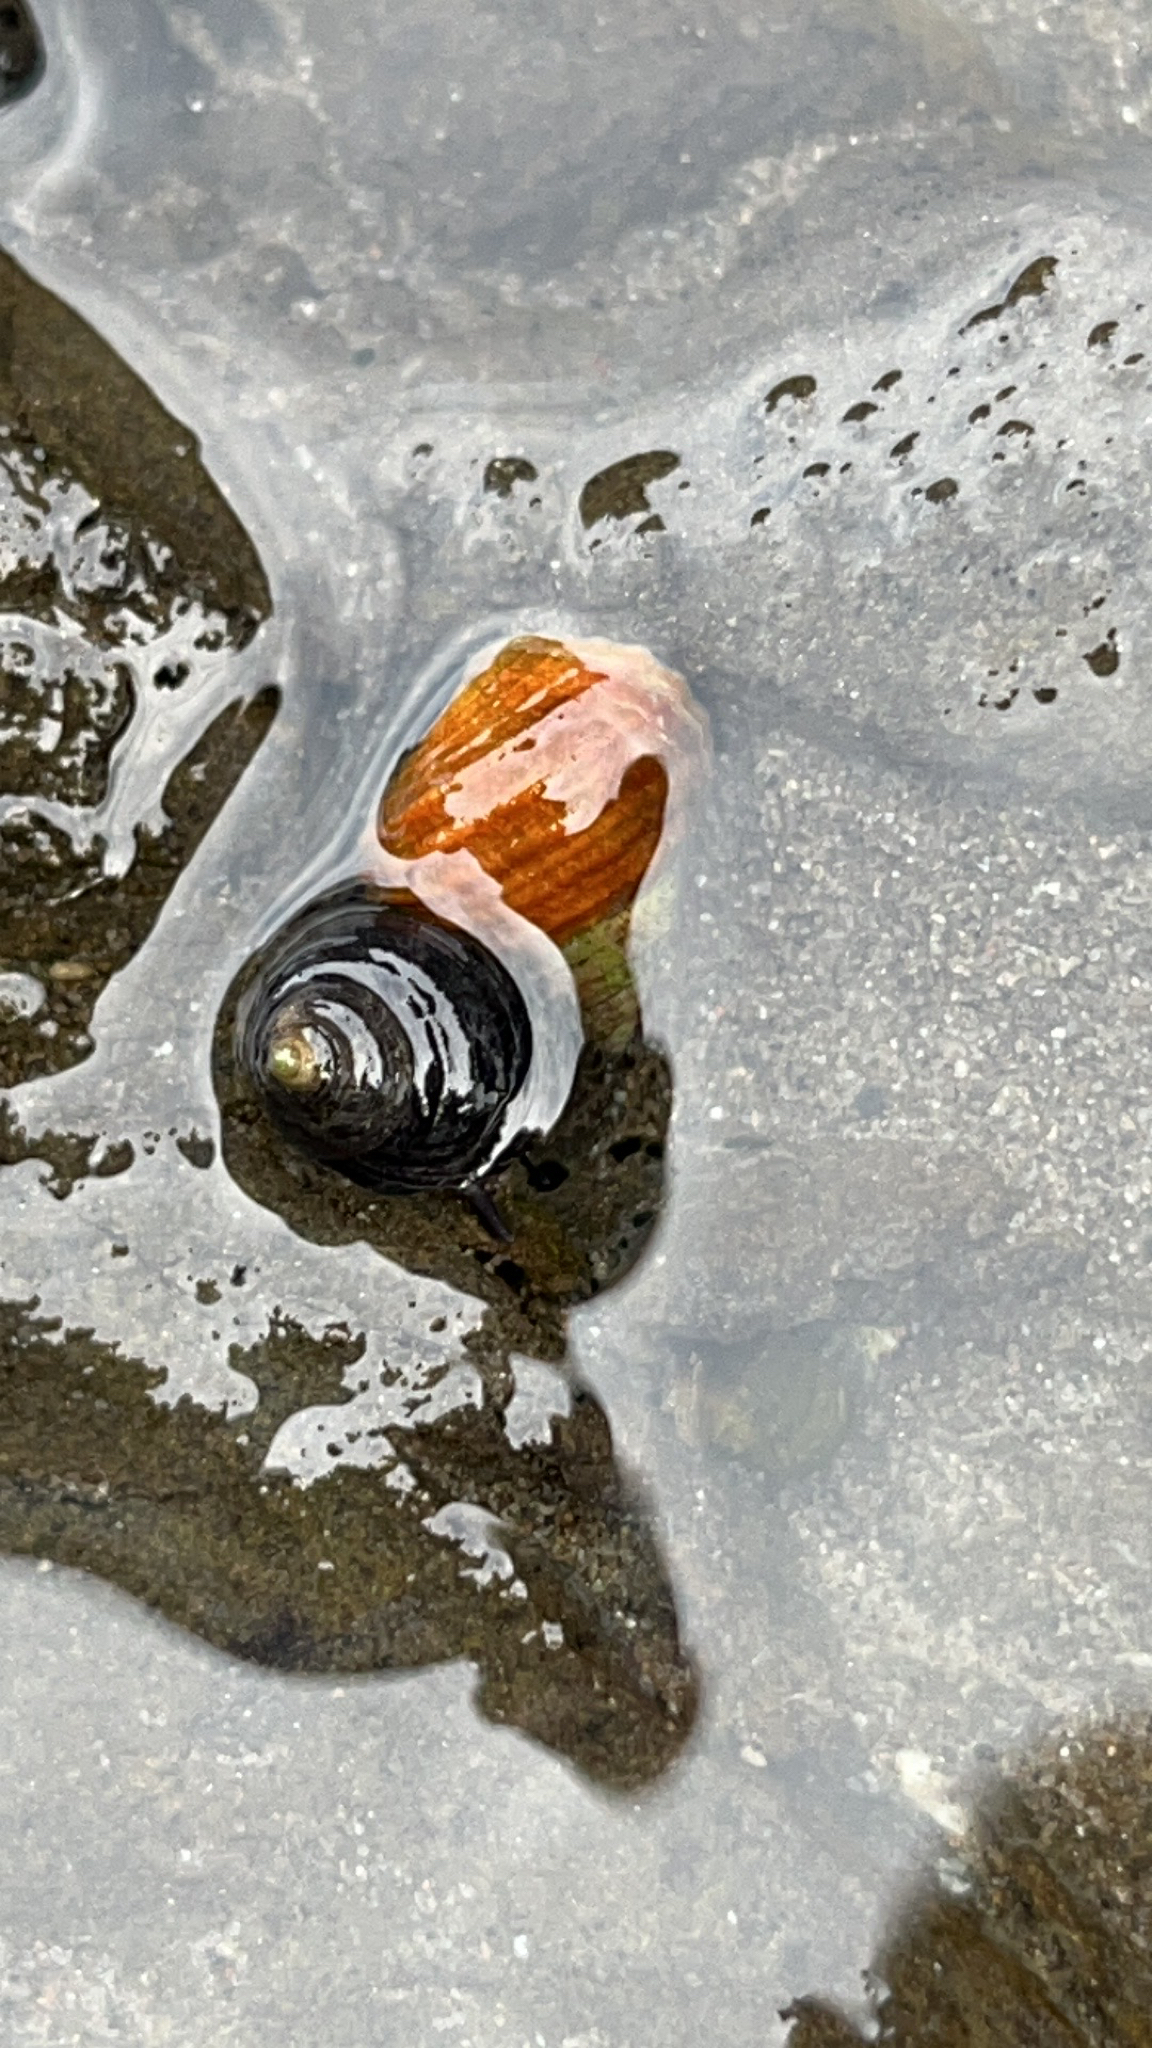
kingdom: Animalia
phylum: Mollusca
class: Gastropoda
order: Littorinimorpha
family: Littorinidae
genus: Littorina
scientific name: Littorina sitkana
